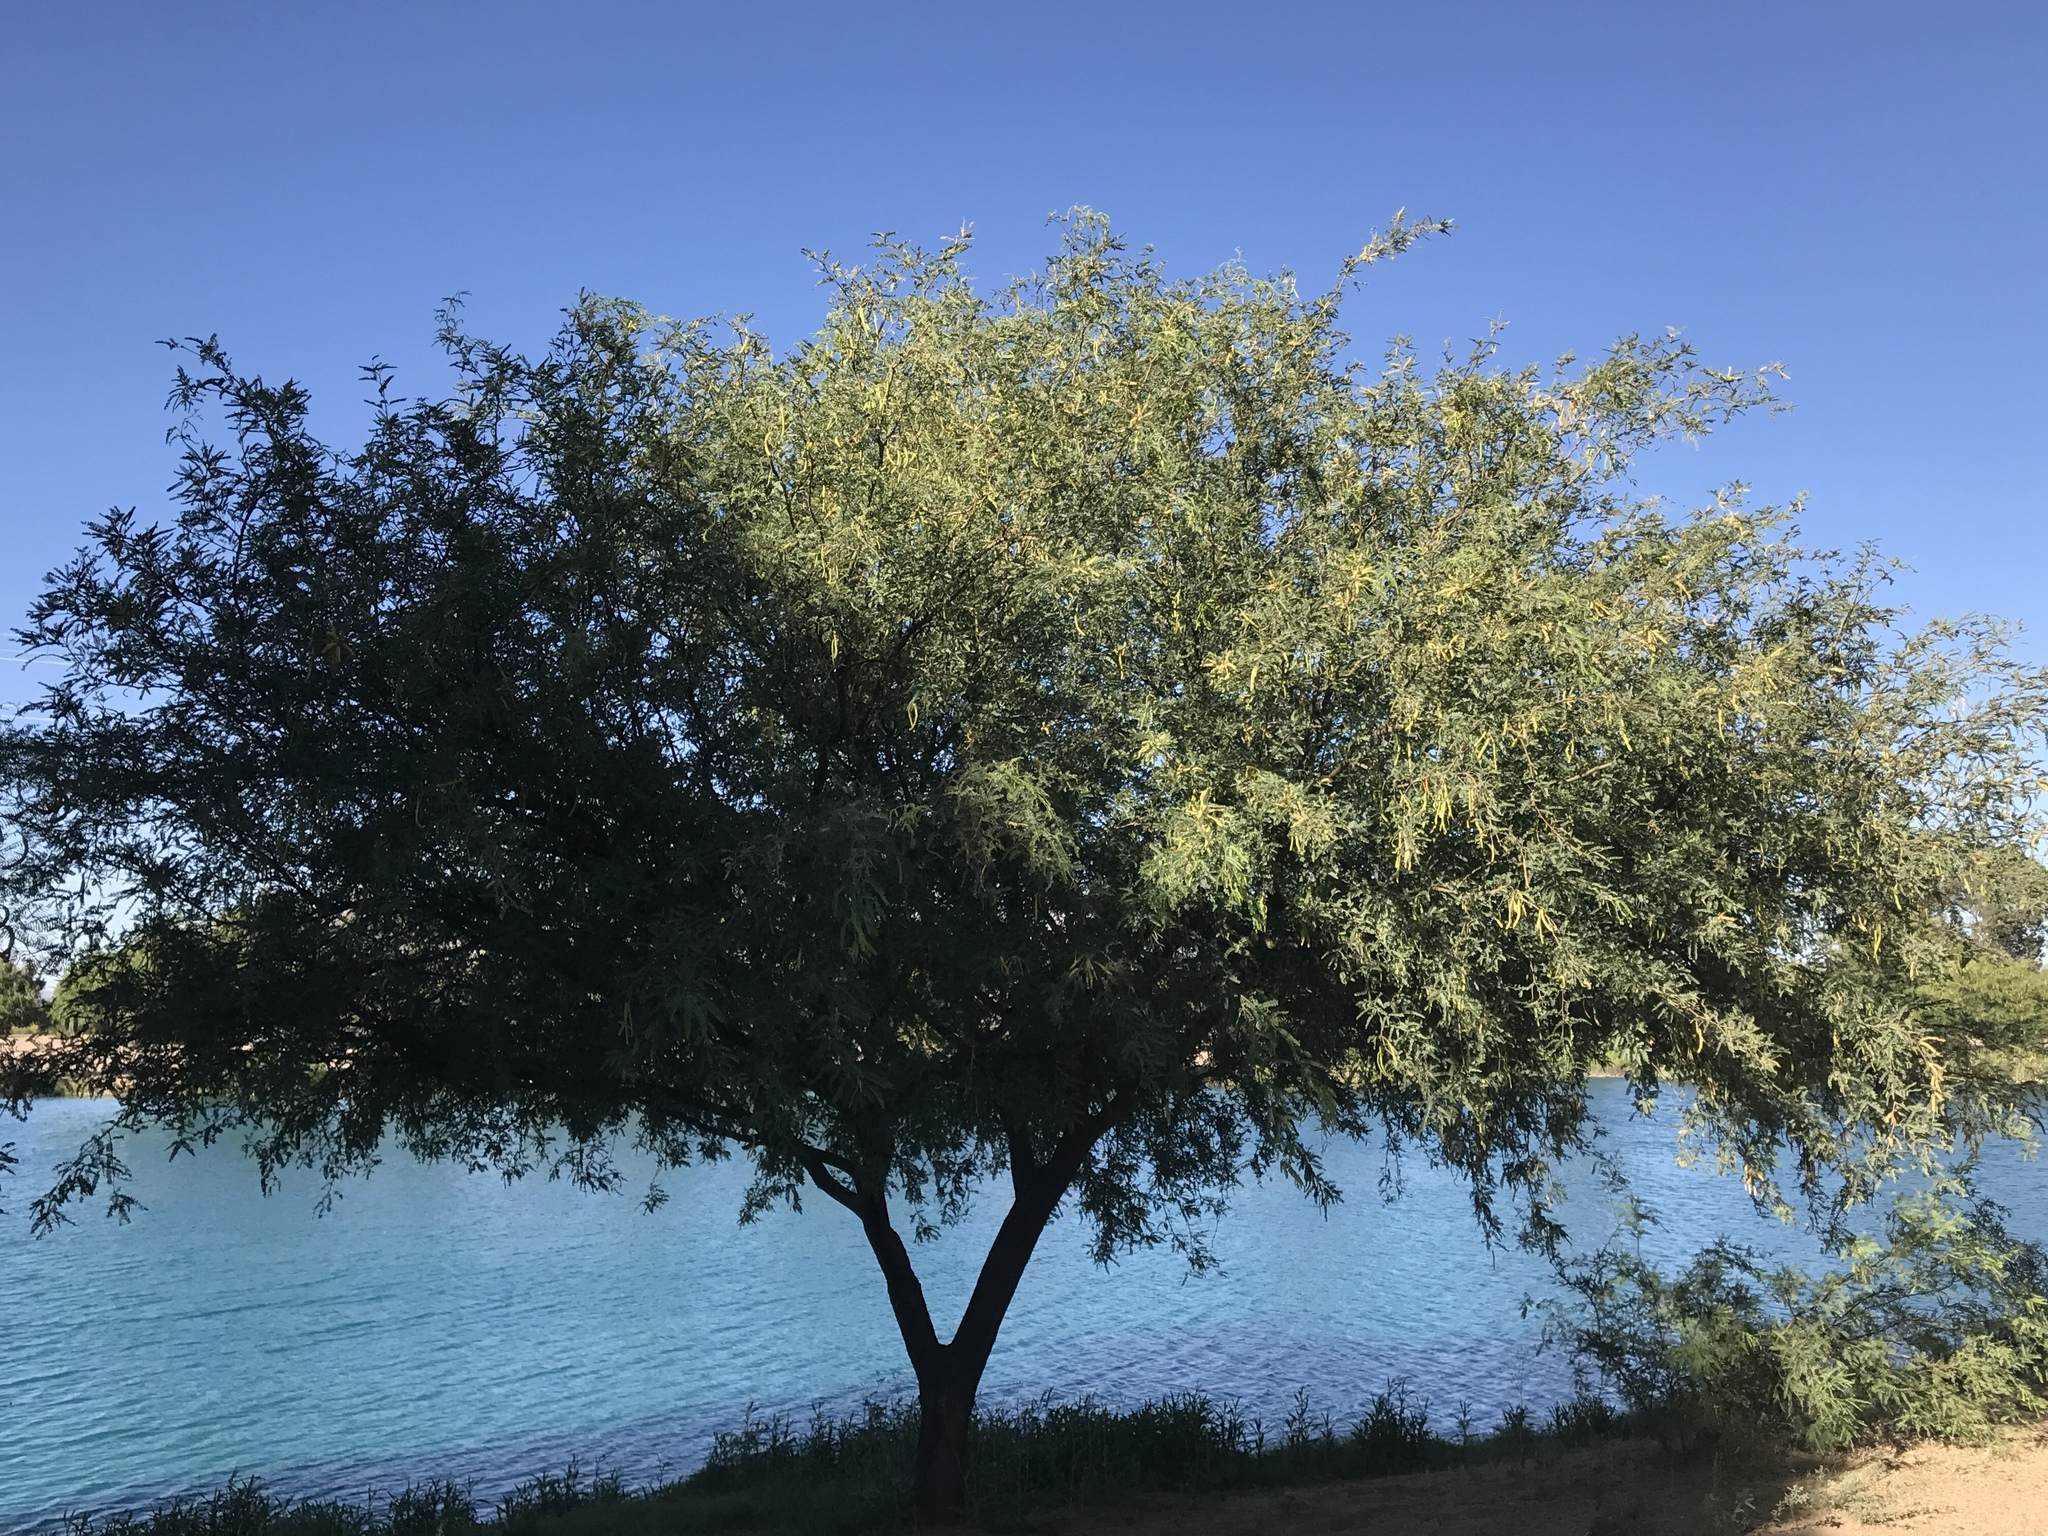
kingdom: Plantae
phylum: Tracheophyta
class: Magnoliopsida
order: Fabales
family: Fabaceae
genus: Prosopis
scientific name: Prosopis velutina
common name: Velvet mesquite
